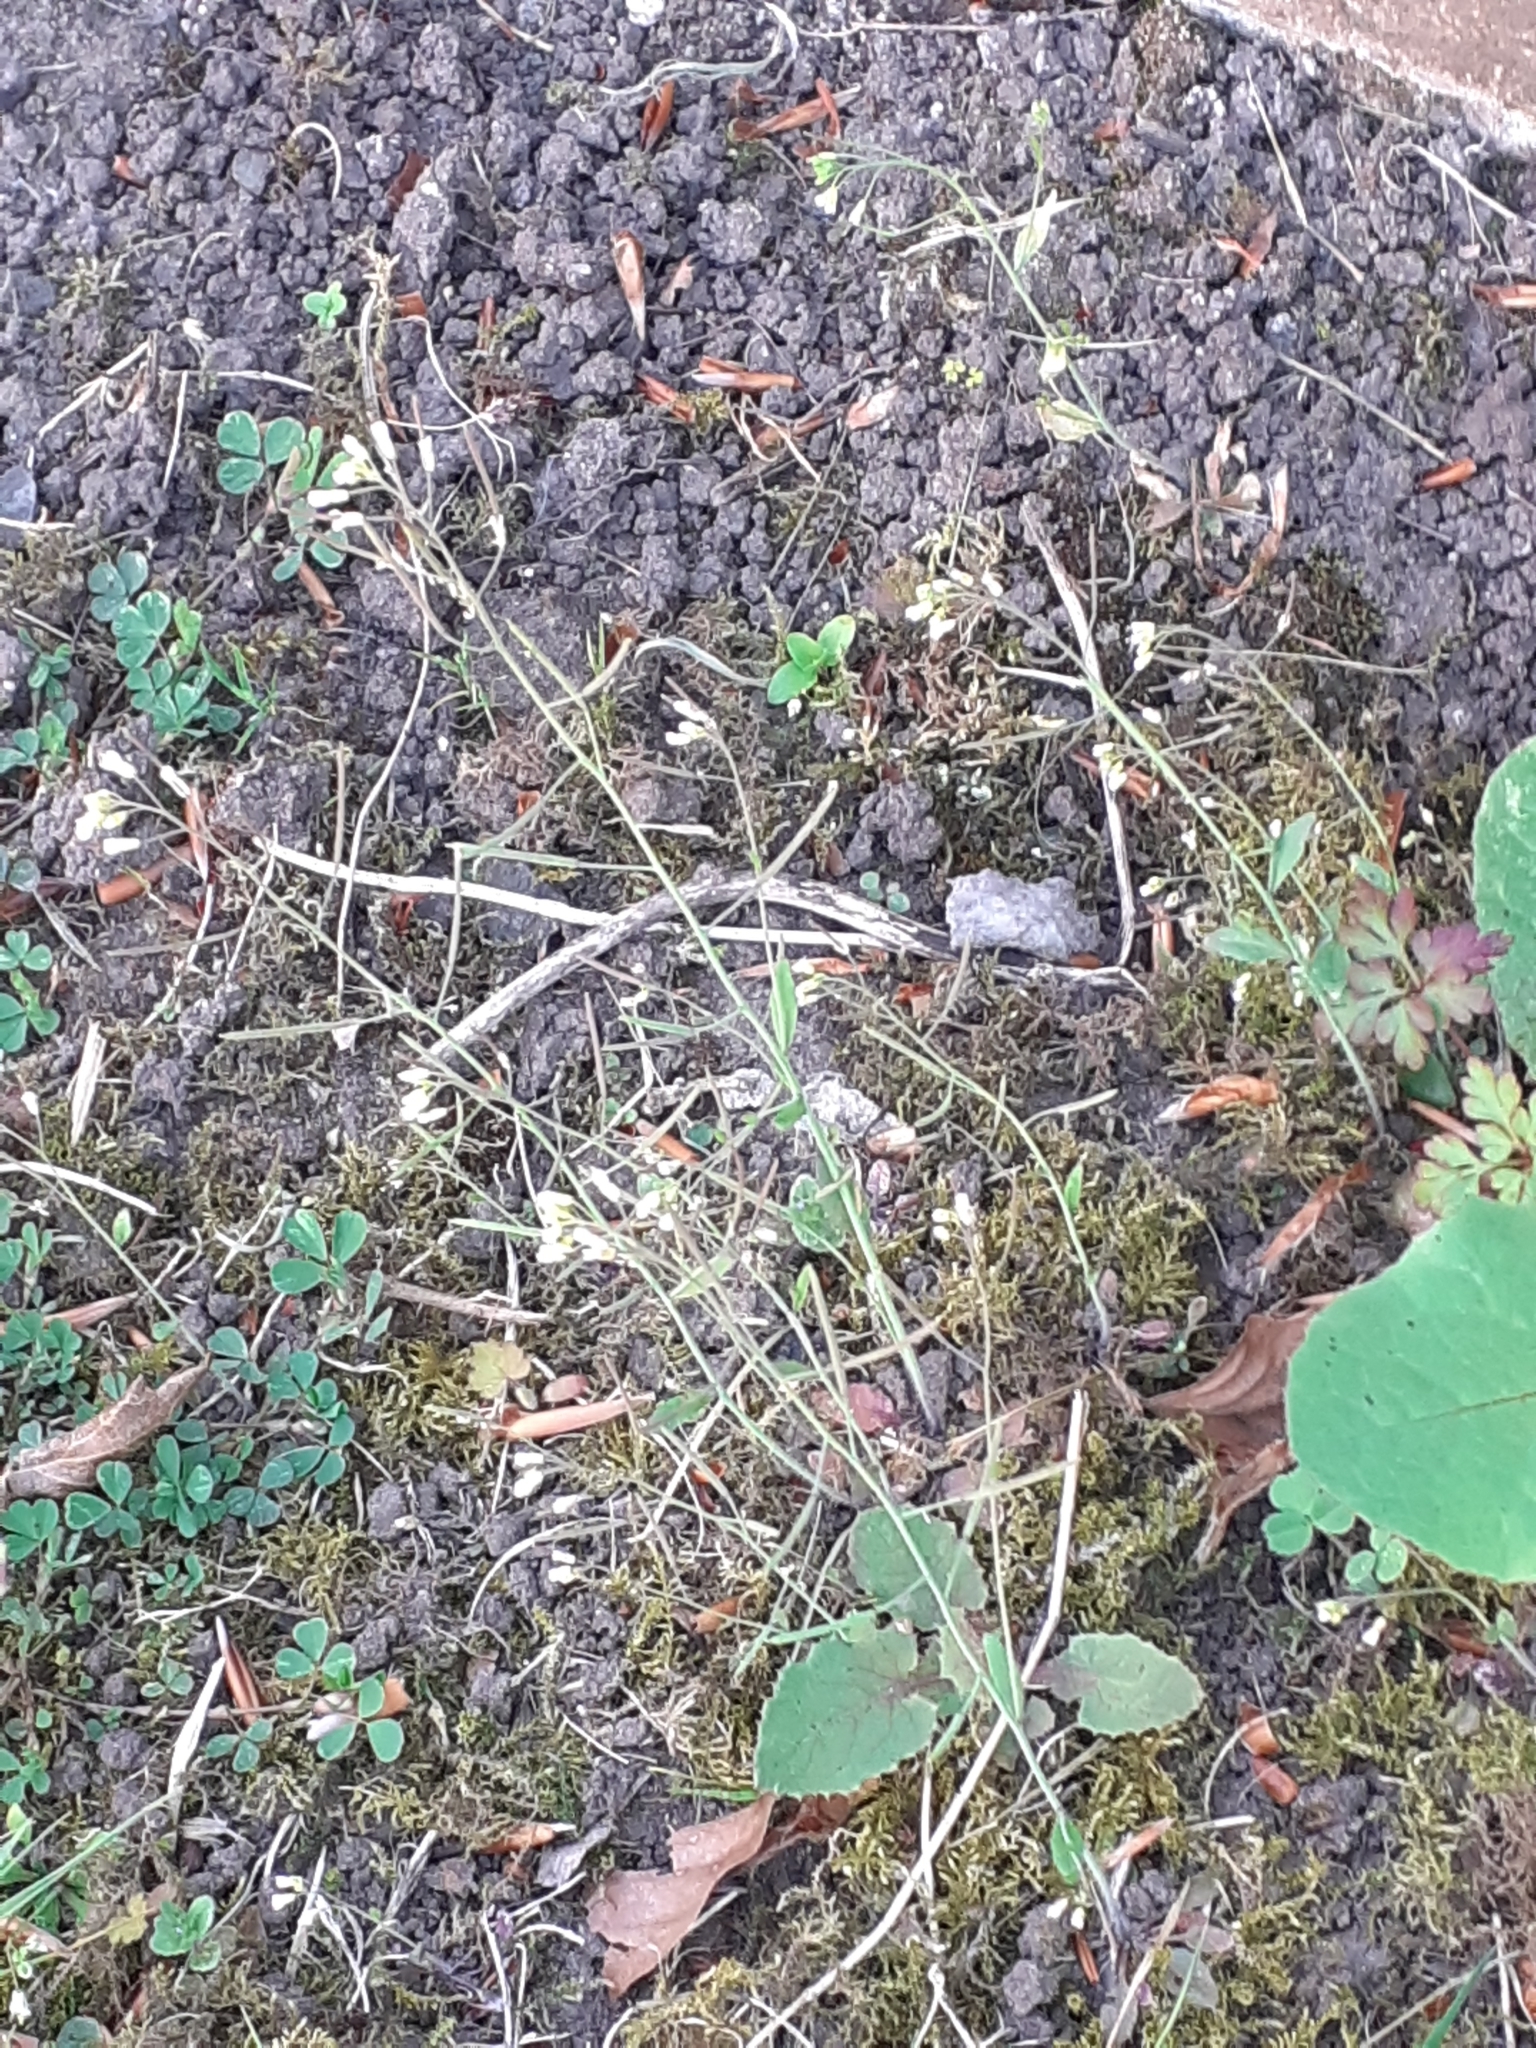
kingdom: Plantae
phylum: Tracheophyta
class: Magnoliopsida
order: Brassicales
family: Brassicaceae
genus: Arabidopsis
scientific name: Arabidopsis thaliana
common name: Thale cress
